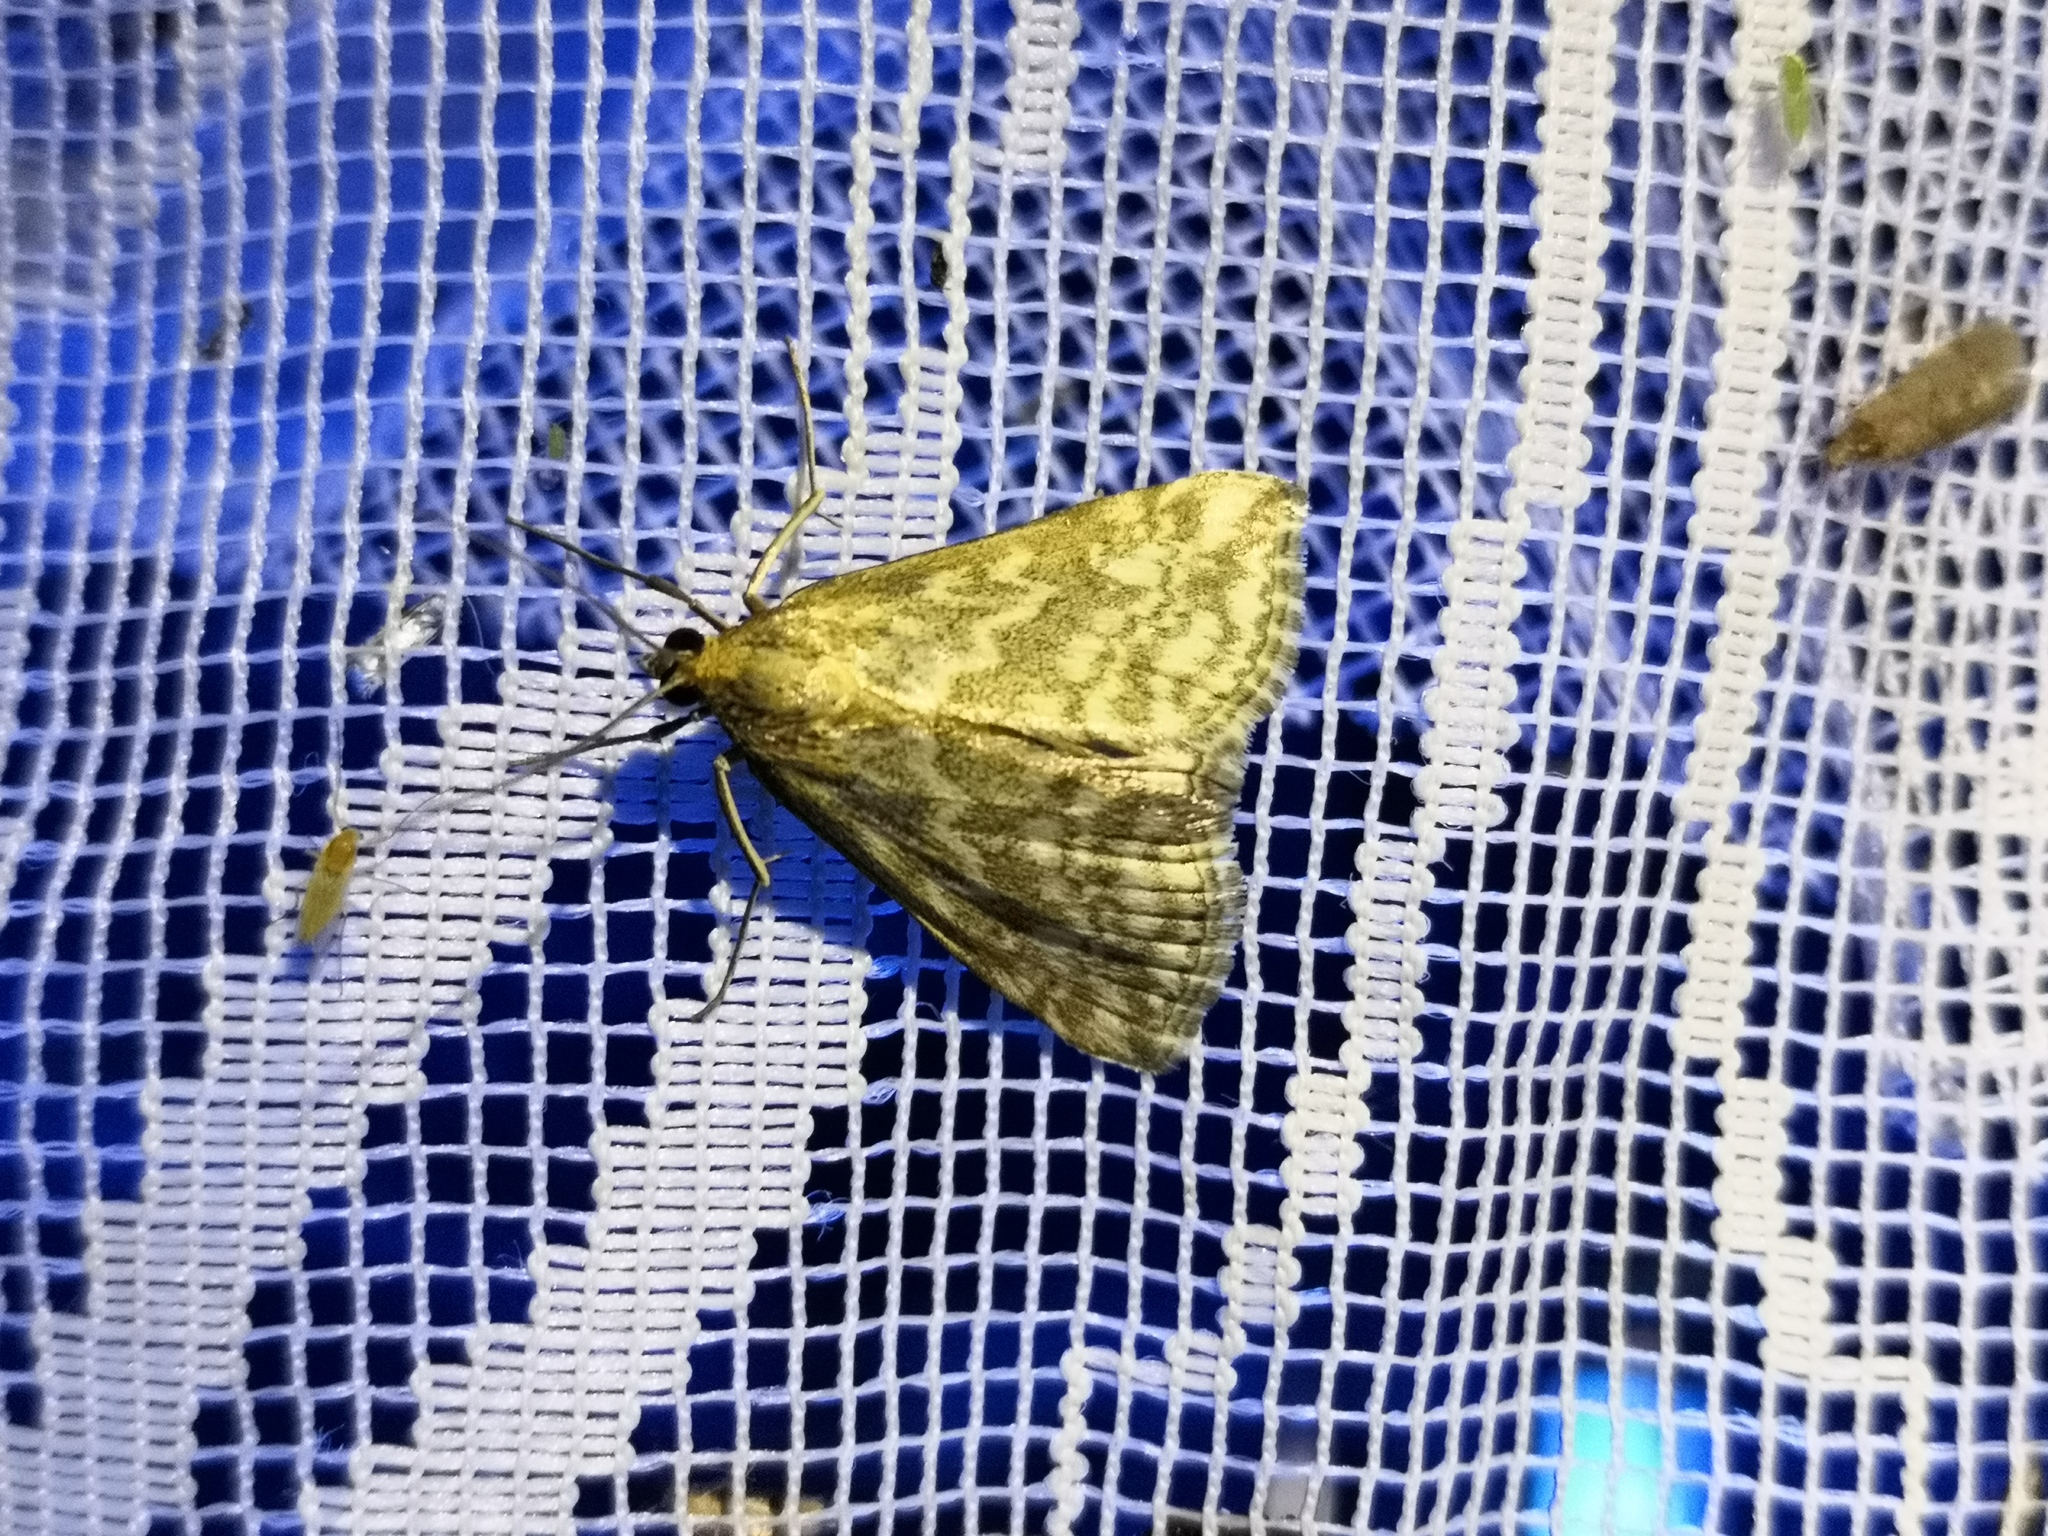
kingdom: Animalia
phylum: Arthropoda
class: Insecta
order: Lepidoptera
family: Crambidae
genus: Evergestis
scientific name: Evergestis frumentalis
